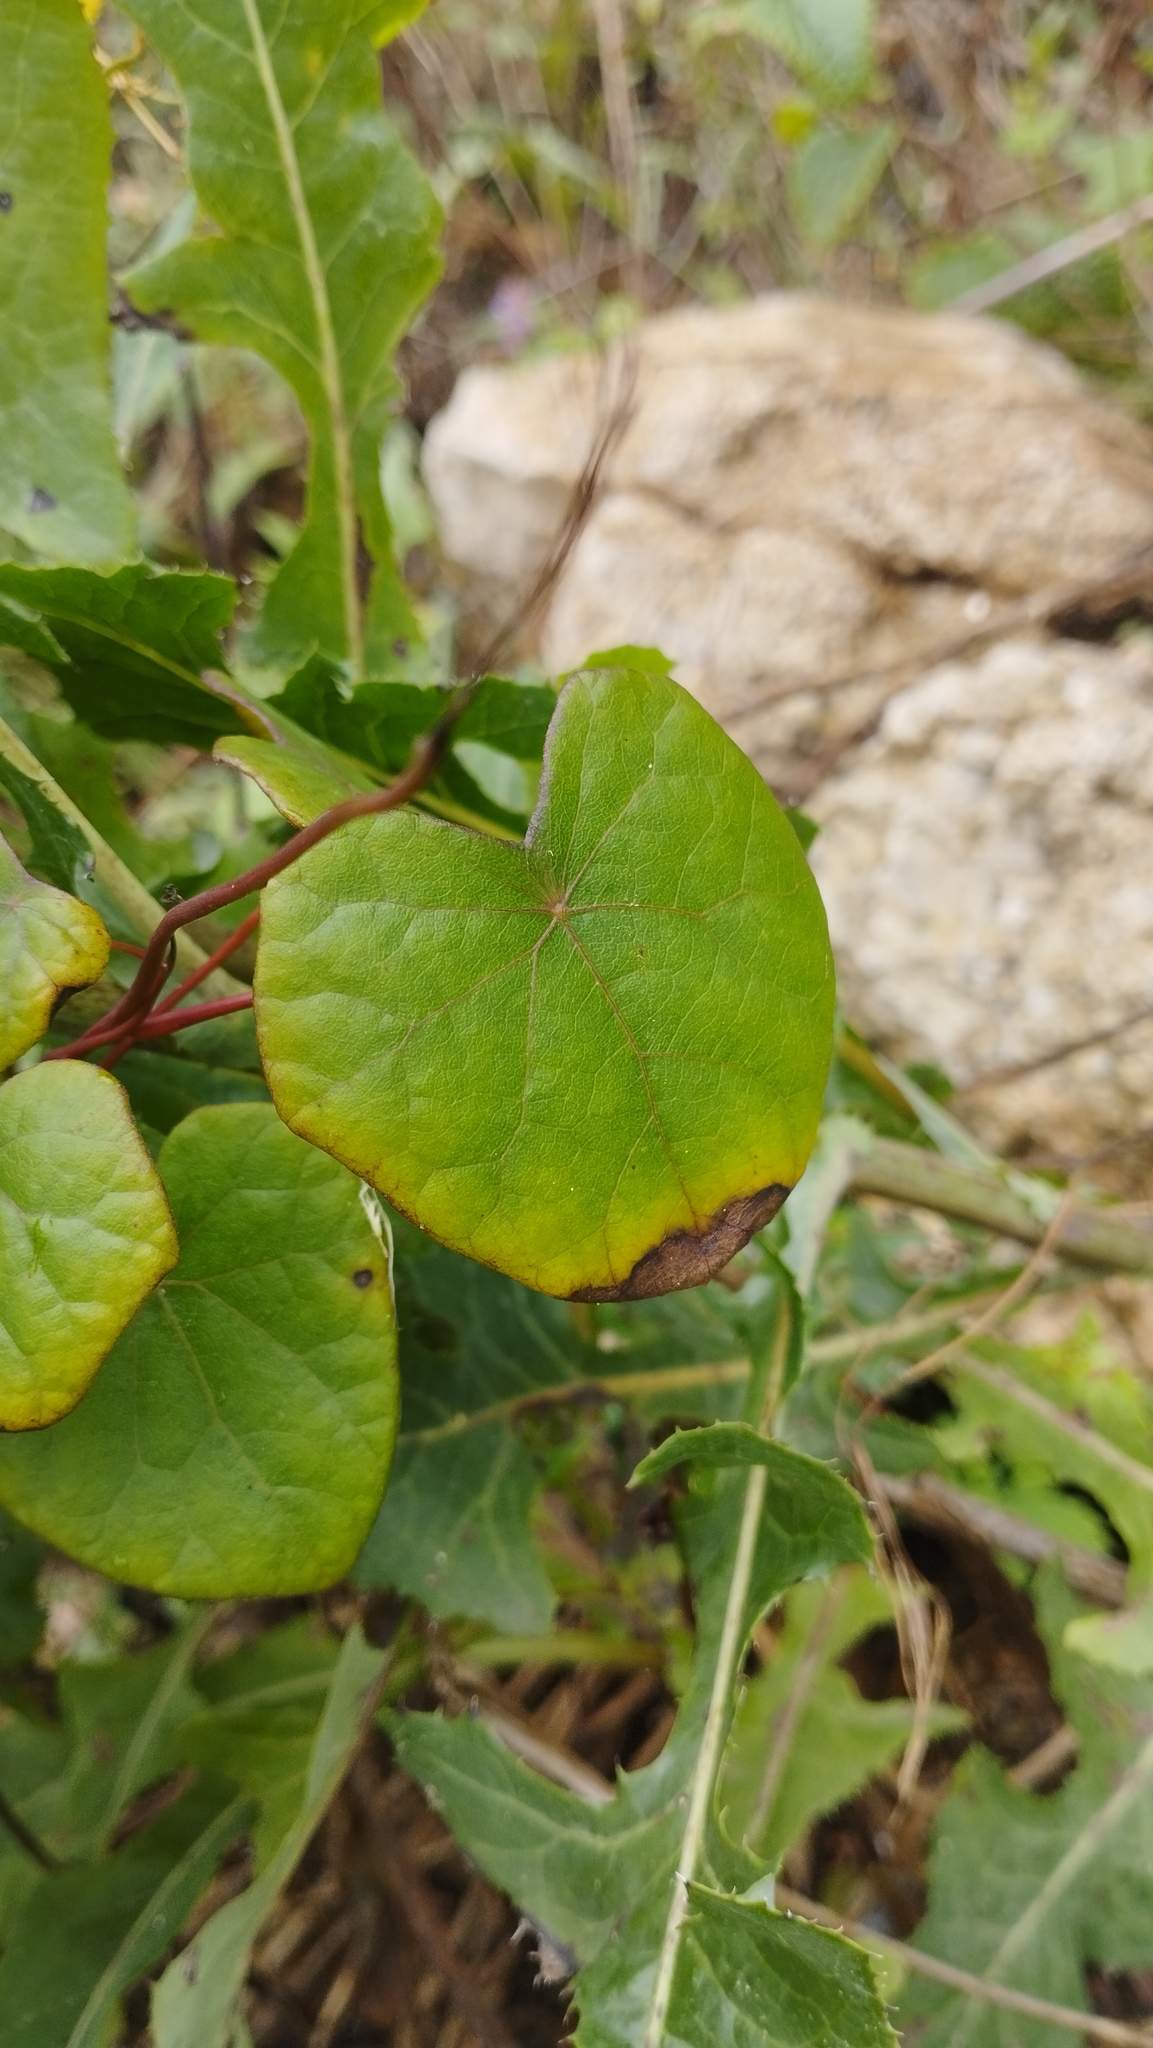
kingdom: Plantae
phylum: Tracheophyta
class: Magnoliopsida
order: Ranunculales
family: Menispermaceae
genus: Menispermum
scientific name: Menispermum dauricum
